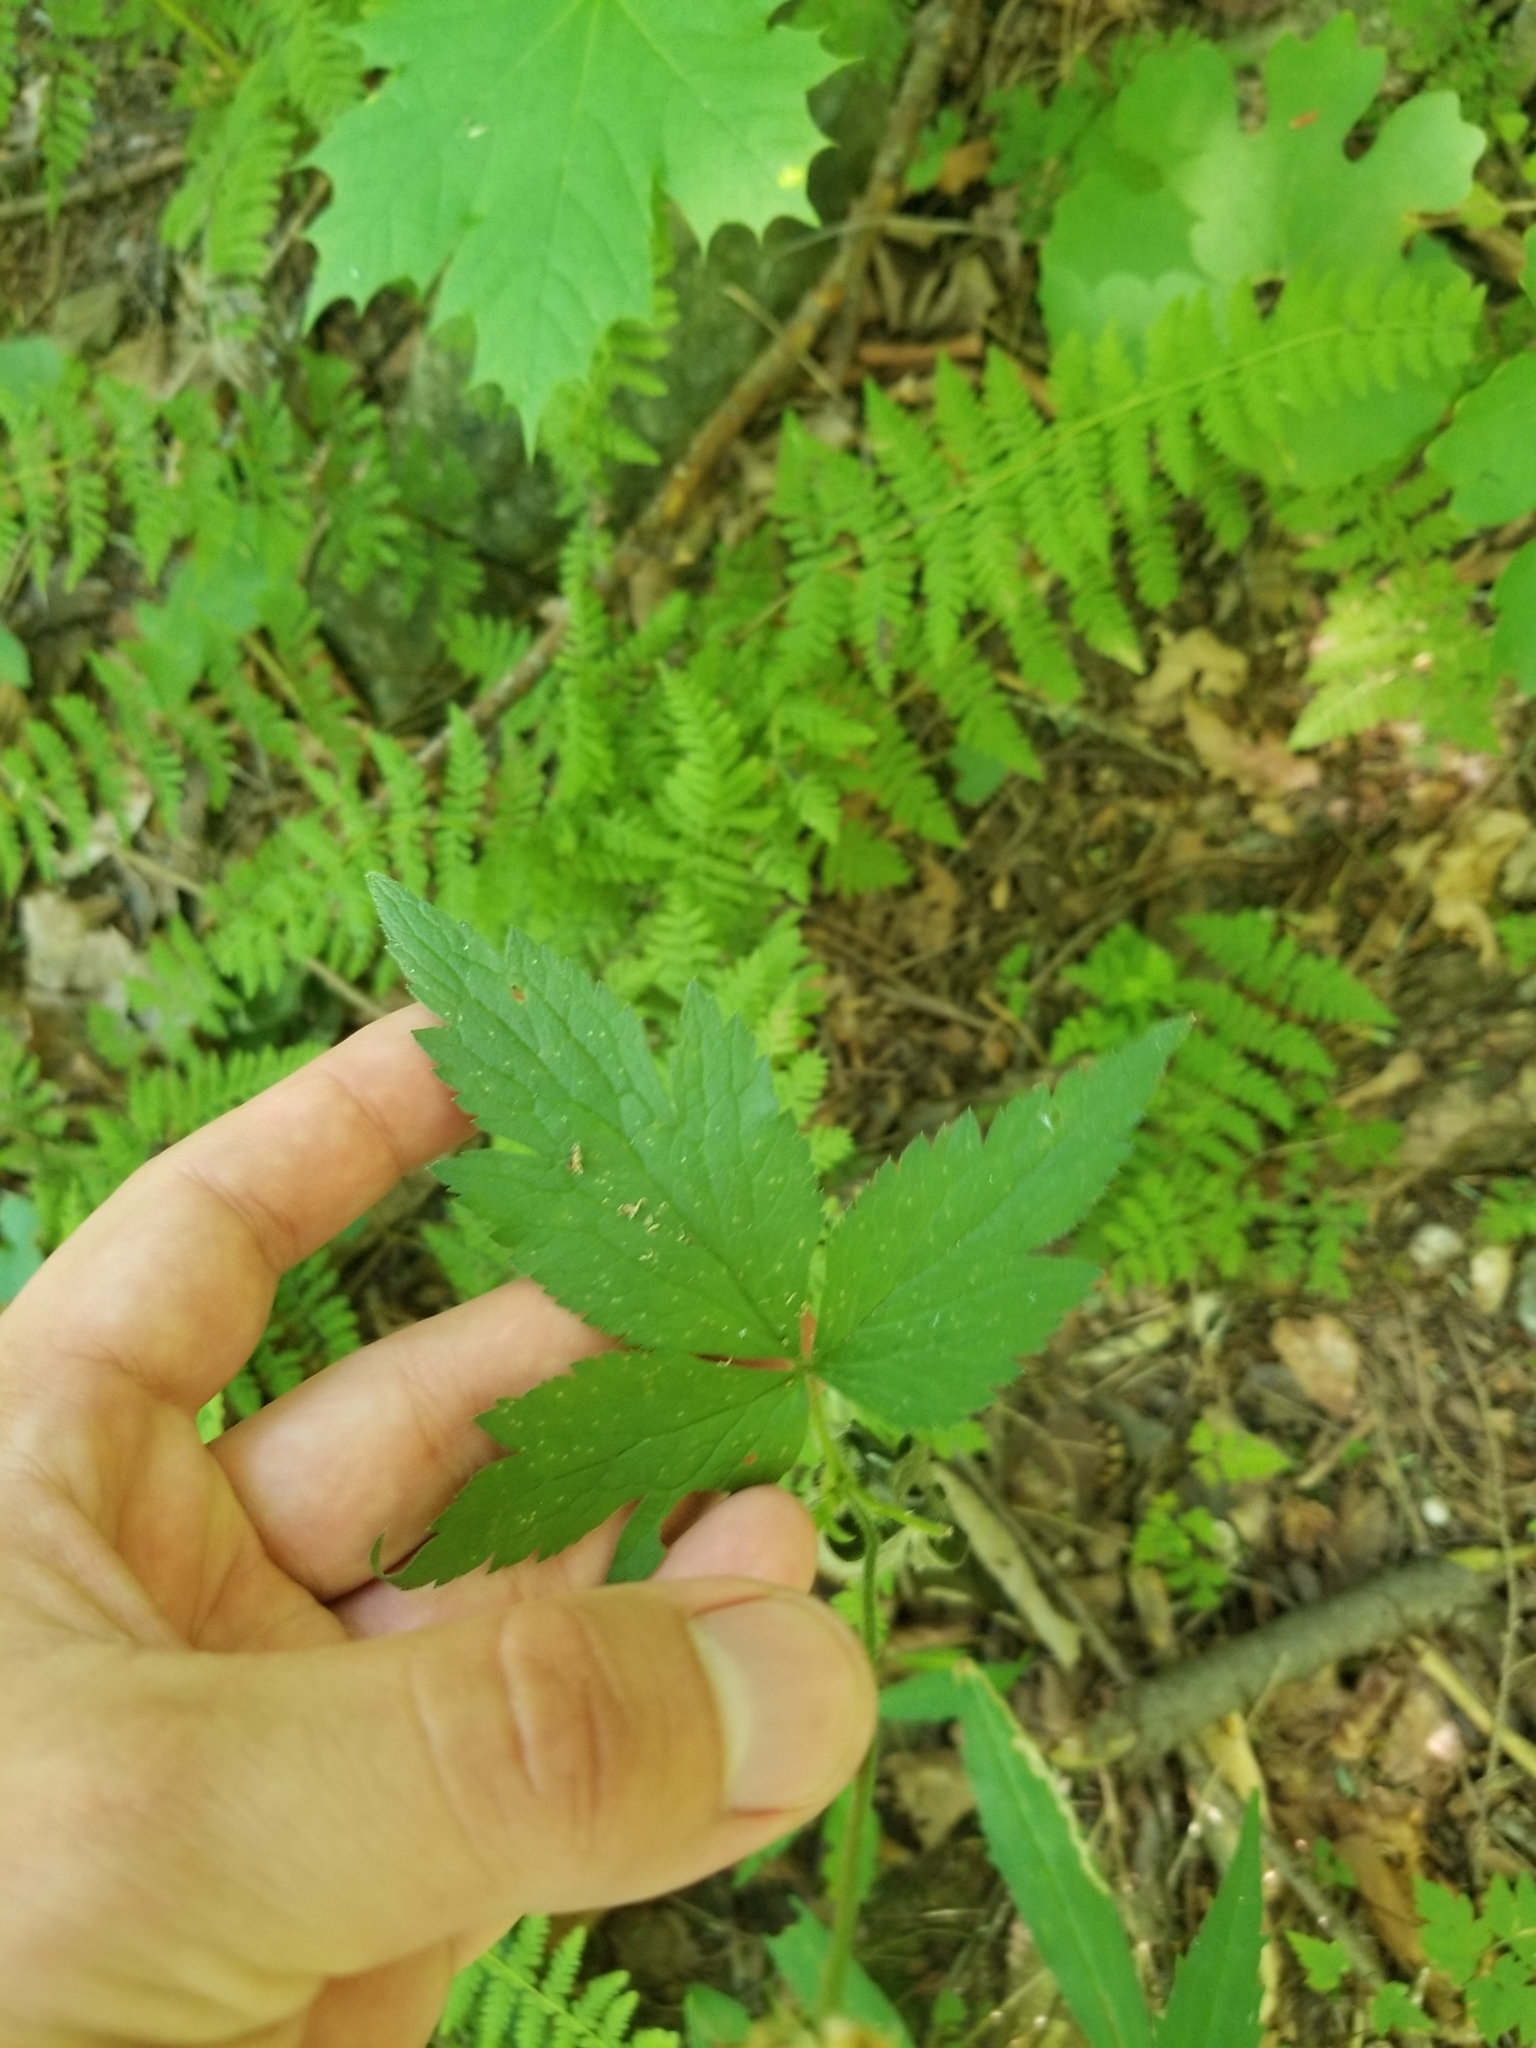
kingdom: Plantae
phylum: Tracheophyta
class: Magnoliopsida
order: Ranunculales
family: Ranunculaceae
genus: Anemone
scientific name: Anemone virginiana
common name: Tall anemone
